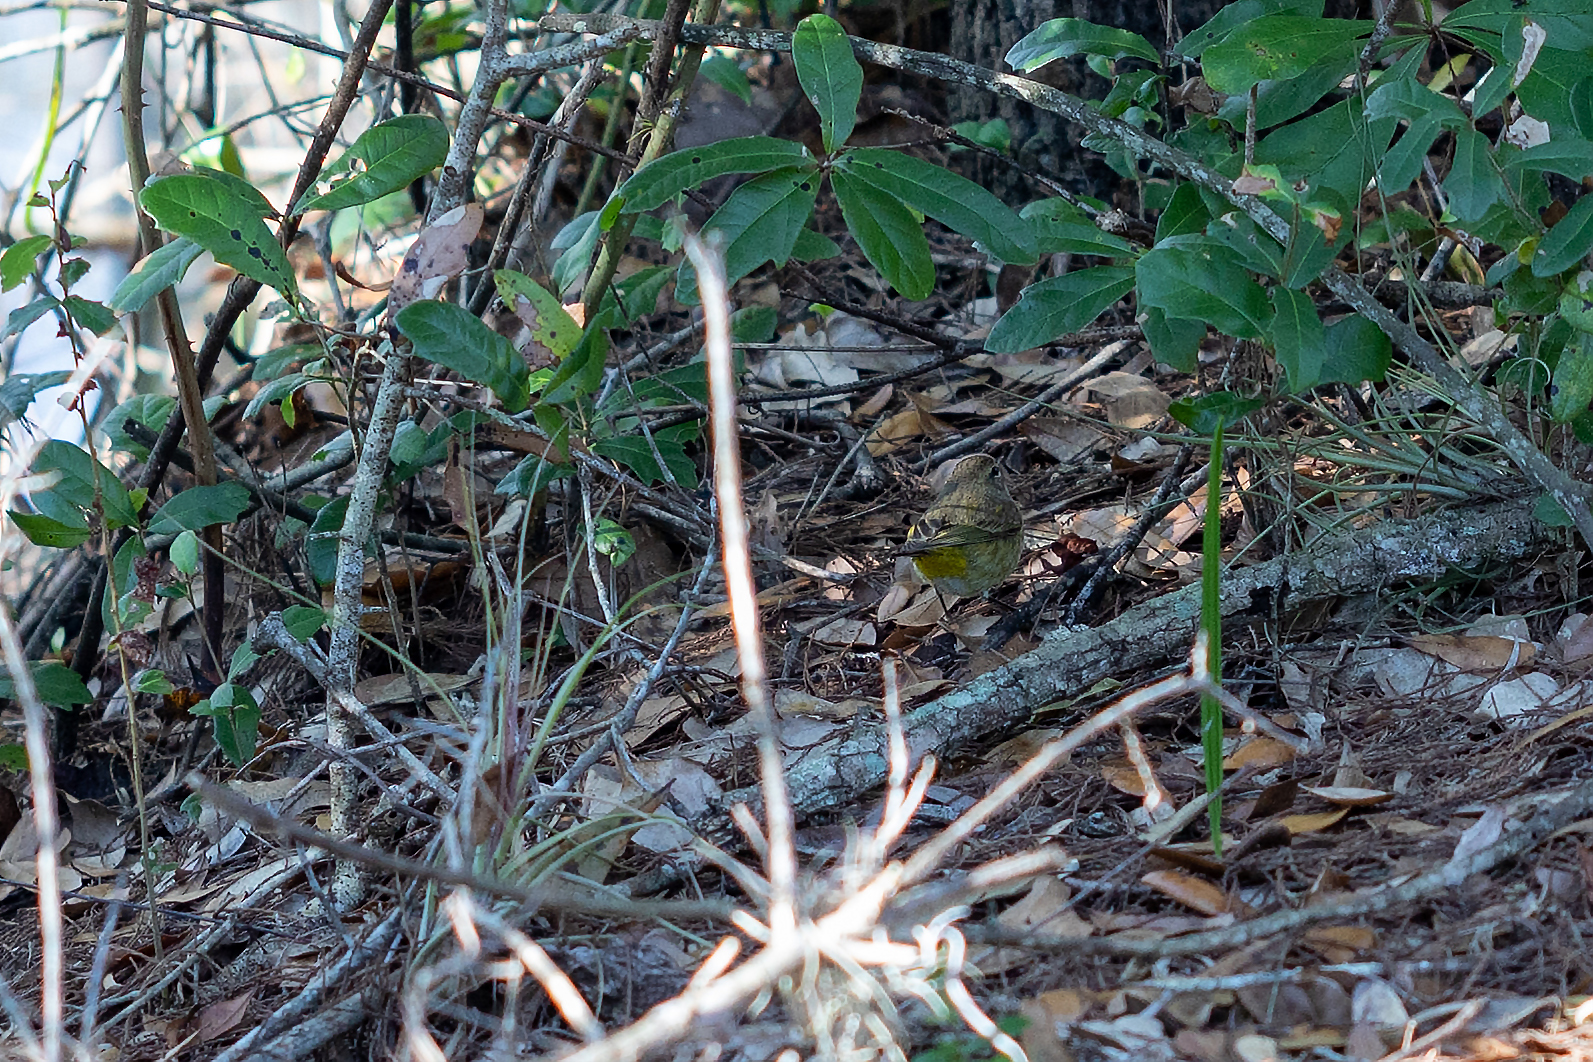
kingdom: Animalia
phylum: Chordata
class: Aves
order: Passeriformes
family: Parulidae
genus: Setophaga
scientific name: Setophaga palmarum
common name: Palm warbler
